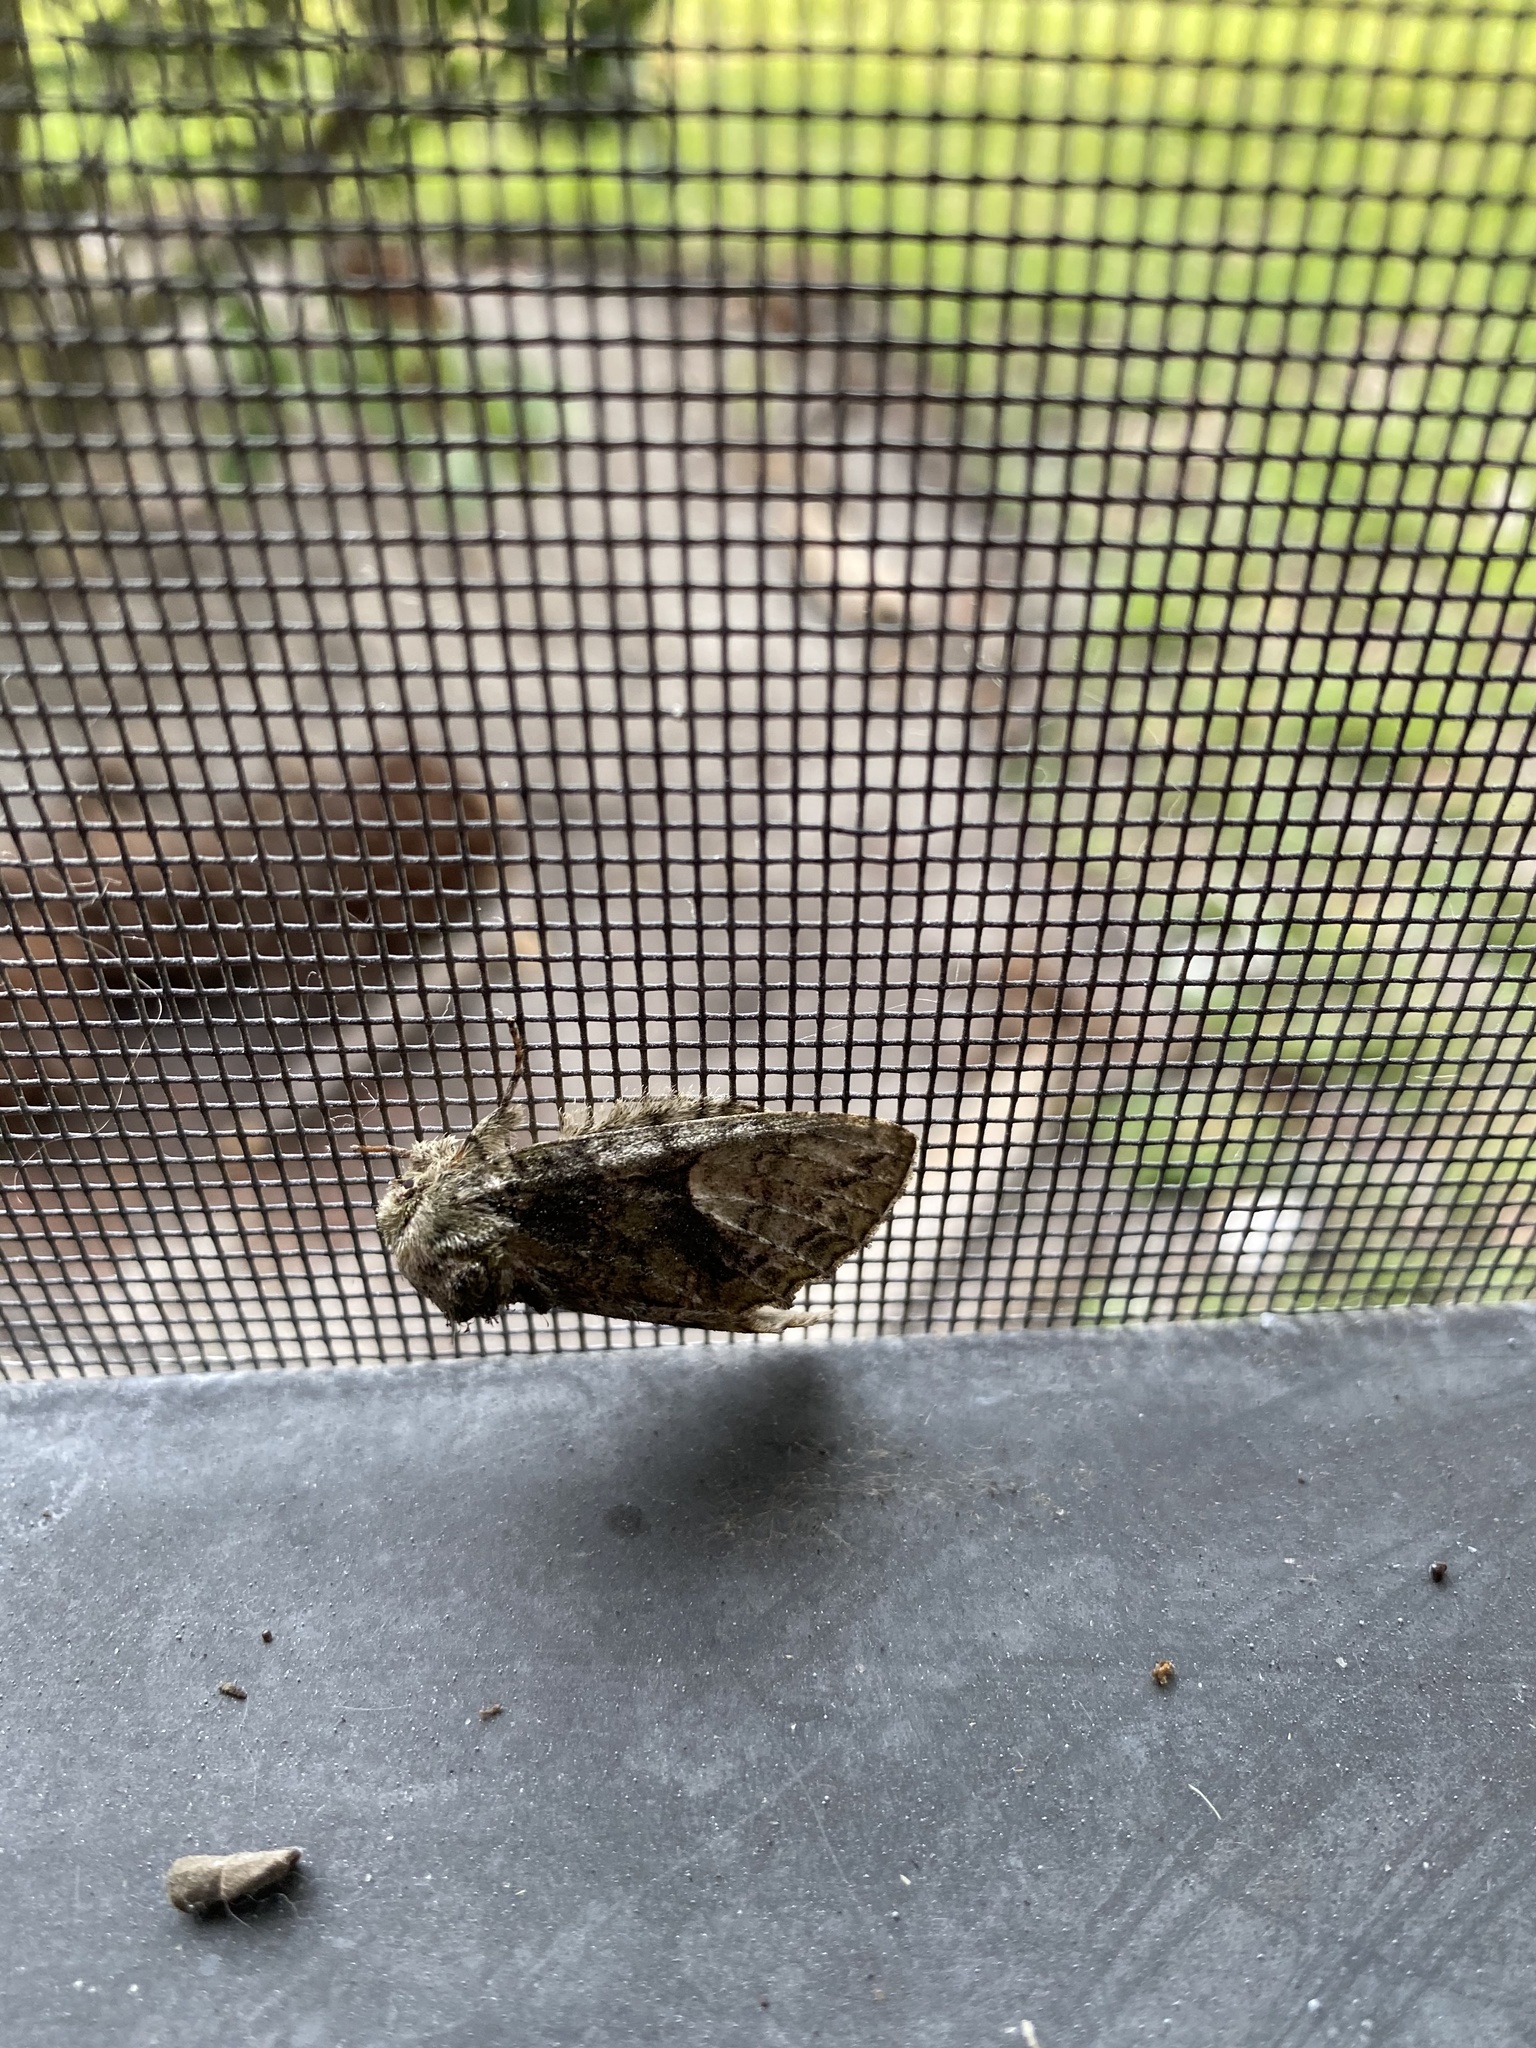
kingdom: Animalia
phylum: Arthropoda
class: Insecta
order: Lepidoptera
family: Notodontidae
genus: Heterocampa
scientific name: Heterocampa umbrata
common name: White-blotched heterocampa
